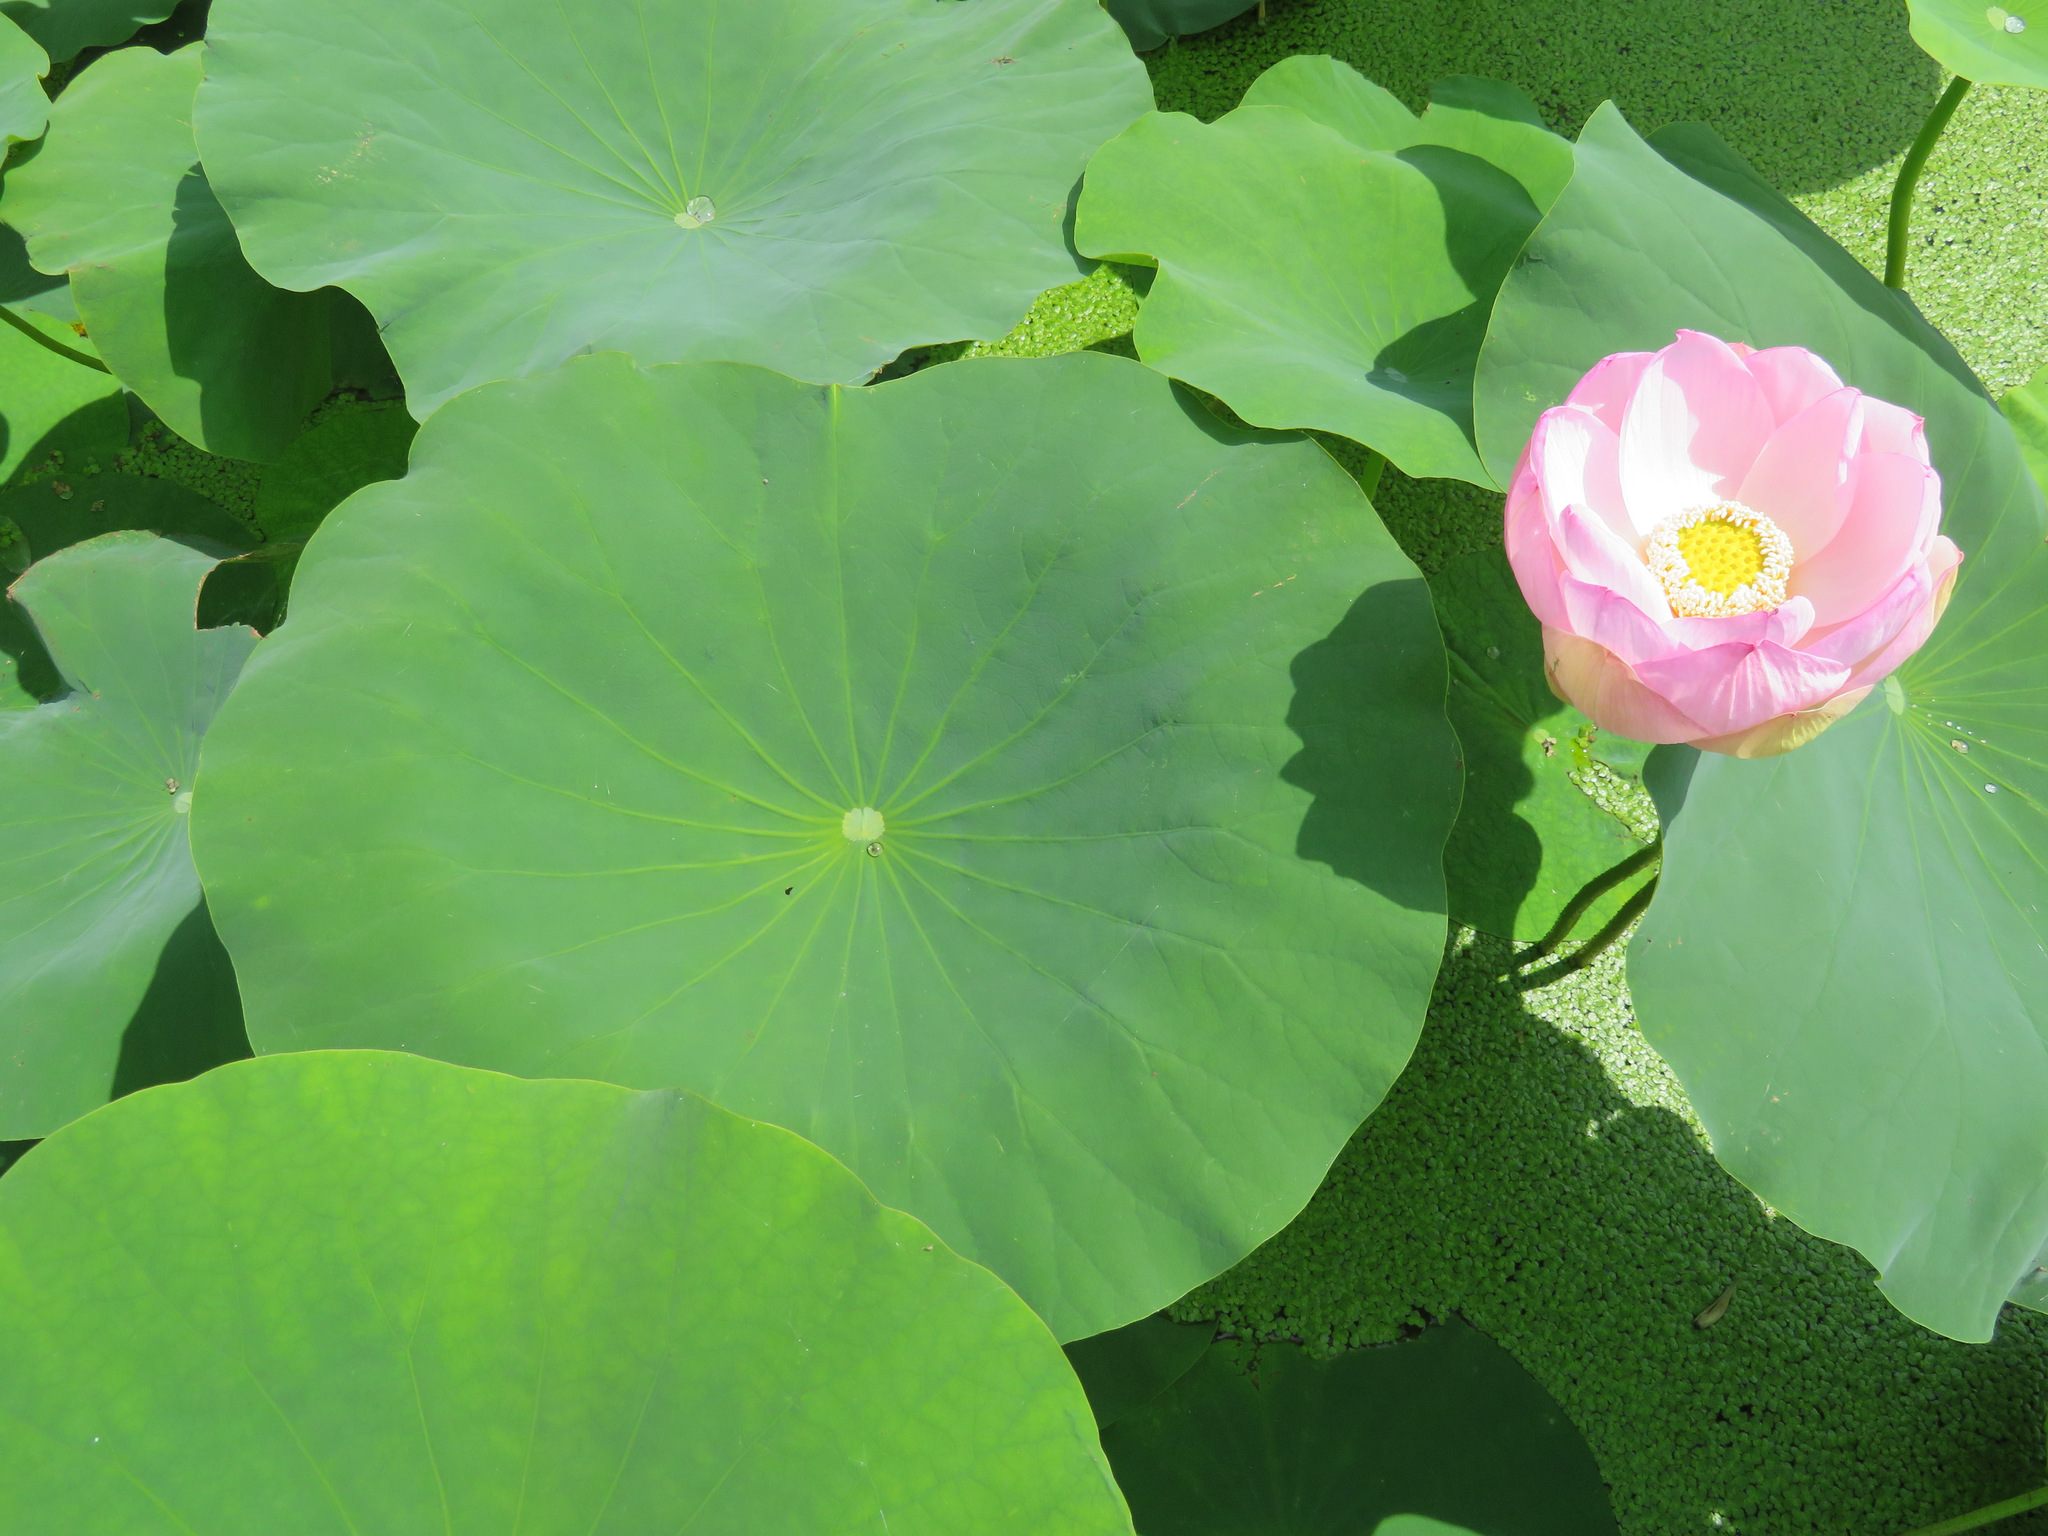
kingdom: Plantae
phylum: Tracheophyta
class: Magnoliopsida
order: Proteales
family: Nelumbonaceae
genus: Nelumbo
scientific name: Nelumbo nucifera
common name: Sacred lotus
